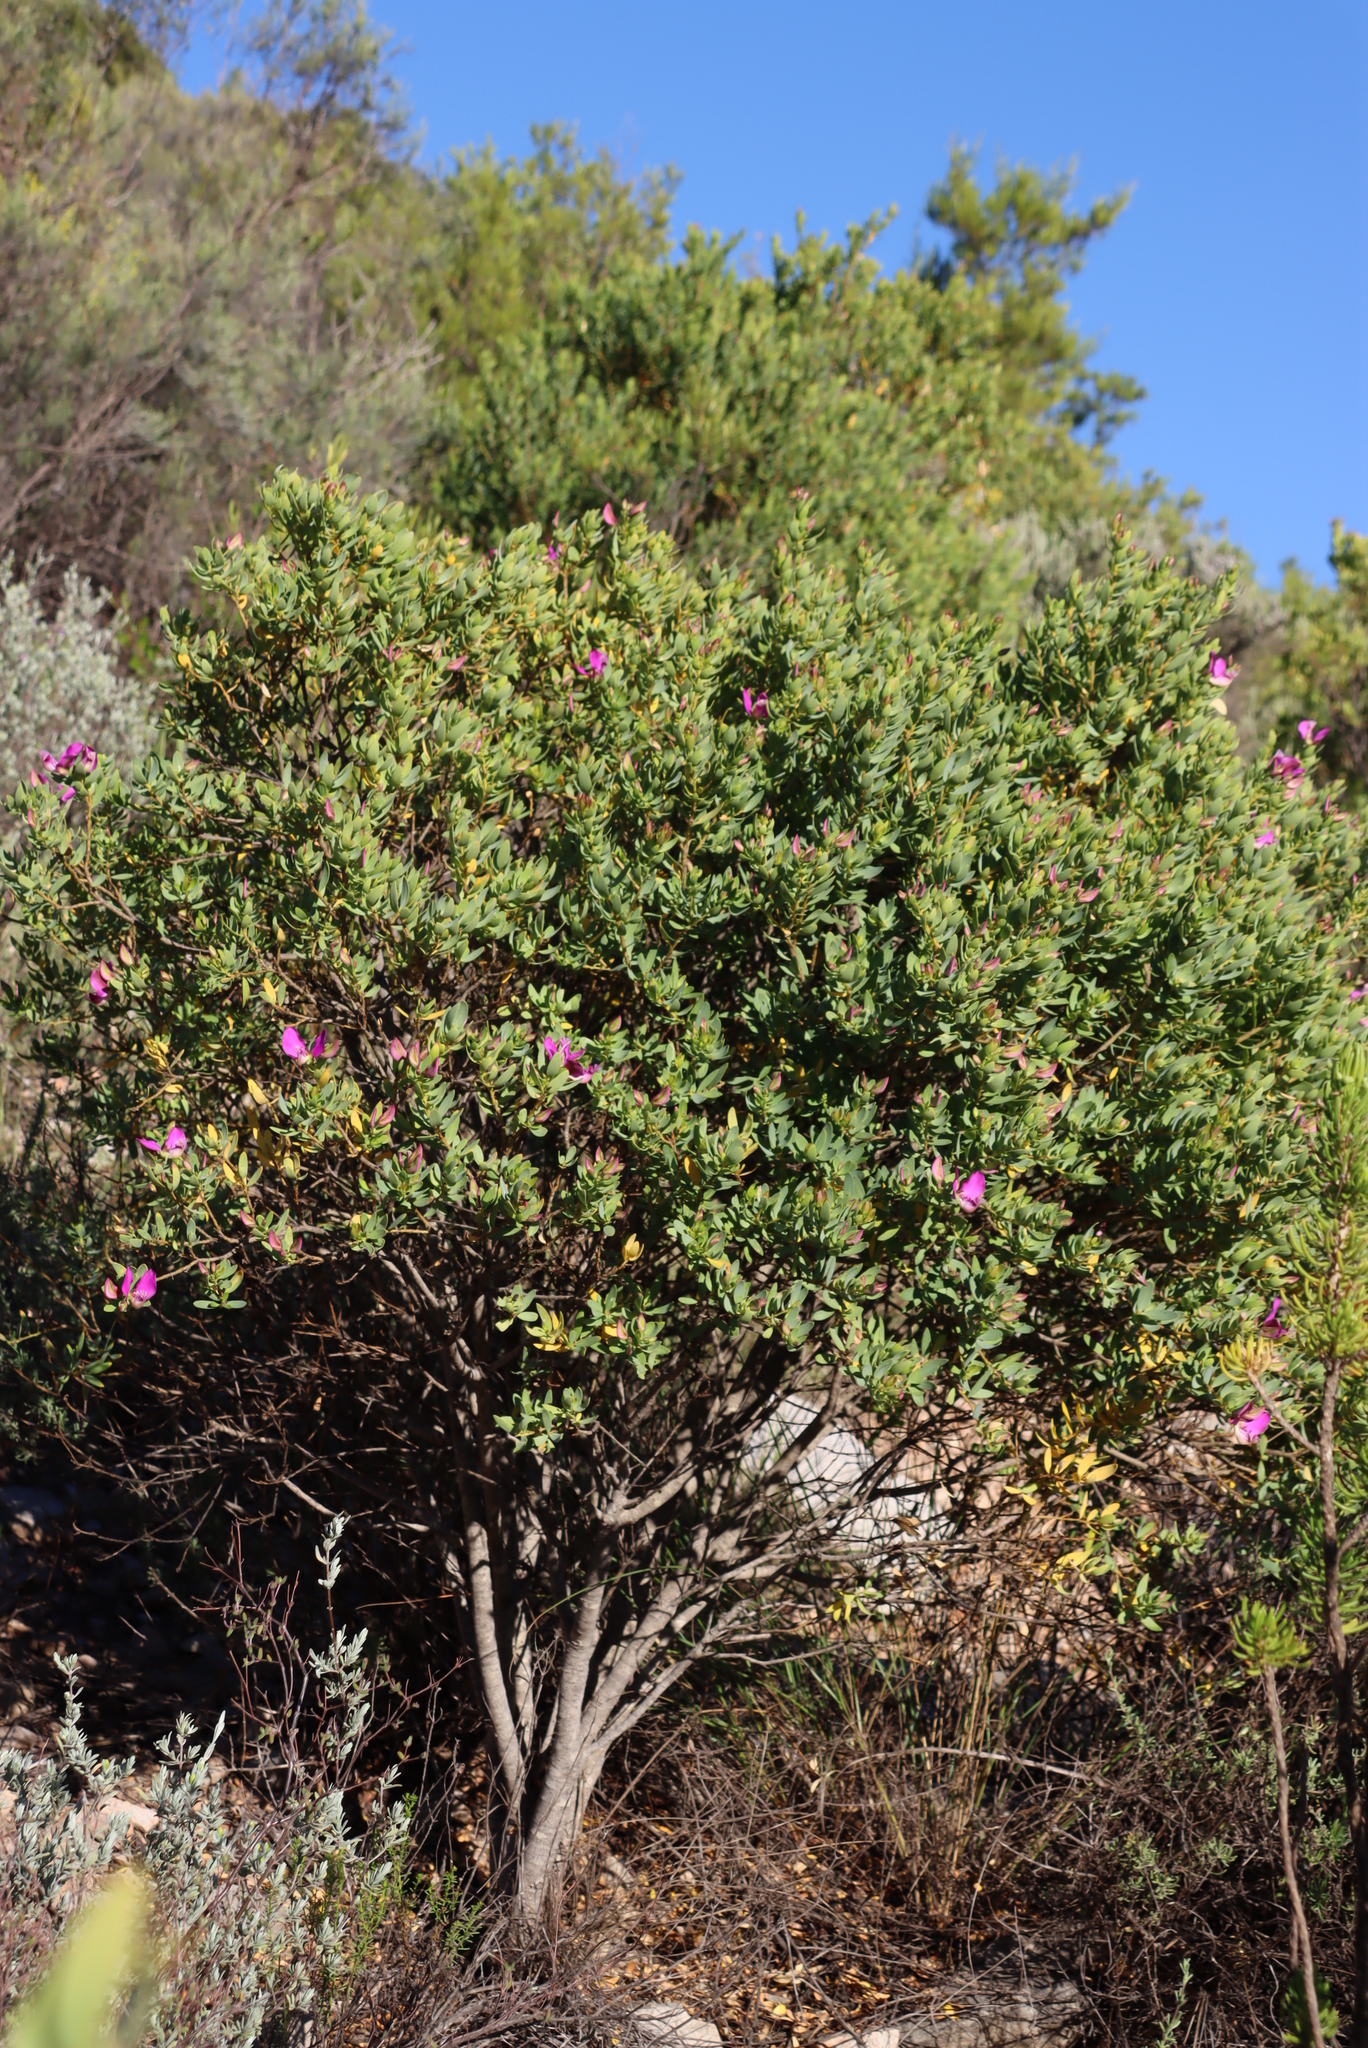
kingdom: Plantae
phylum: Tracheophyta
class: Magnoliopsida
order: Fabales
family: Polygalaceae
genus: Polygala
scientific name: Polygala myrtifolia
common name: Myrtle-leaf milkwort
